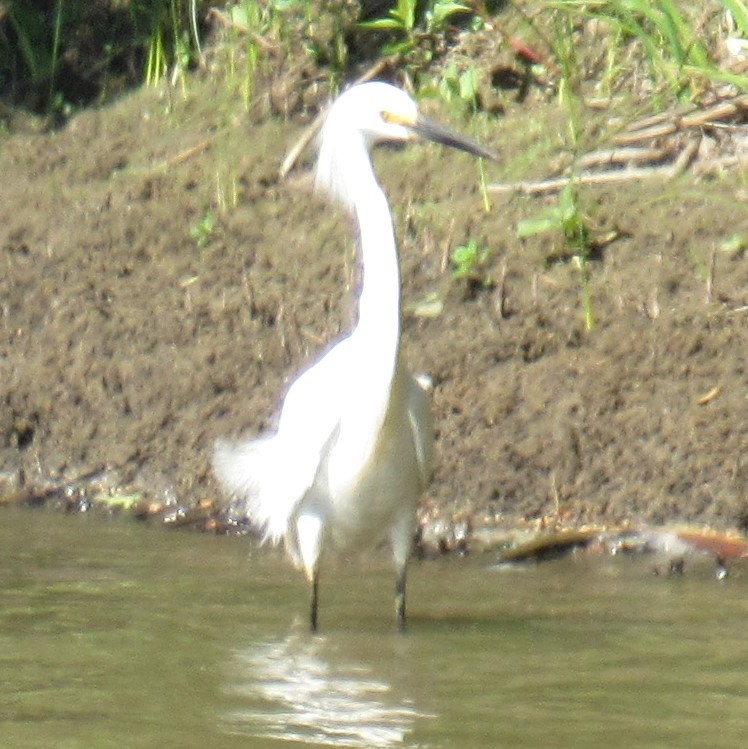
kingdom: Animalia
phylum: Chordata
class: Aves
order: Pelecaniformes
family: Ardeidae
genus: Egretta
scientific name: Egretta thula
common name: Snowy egret
